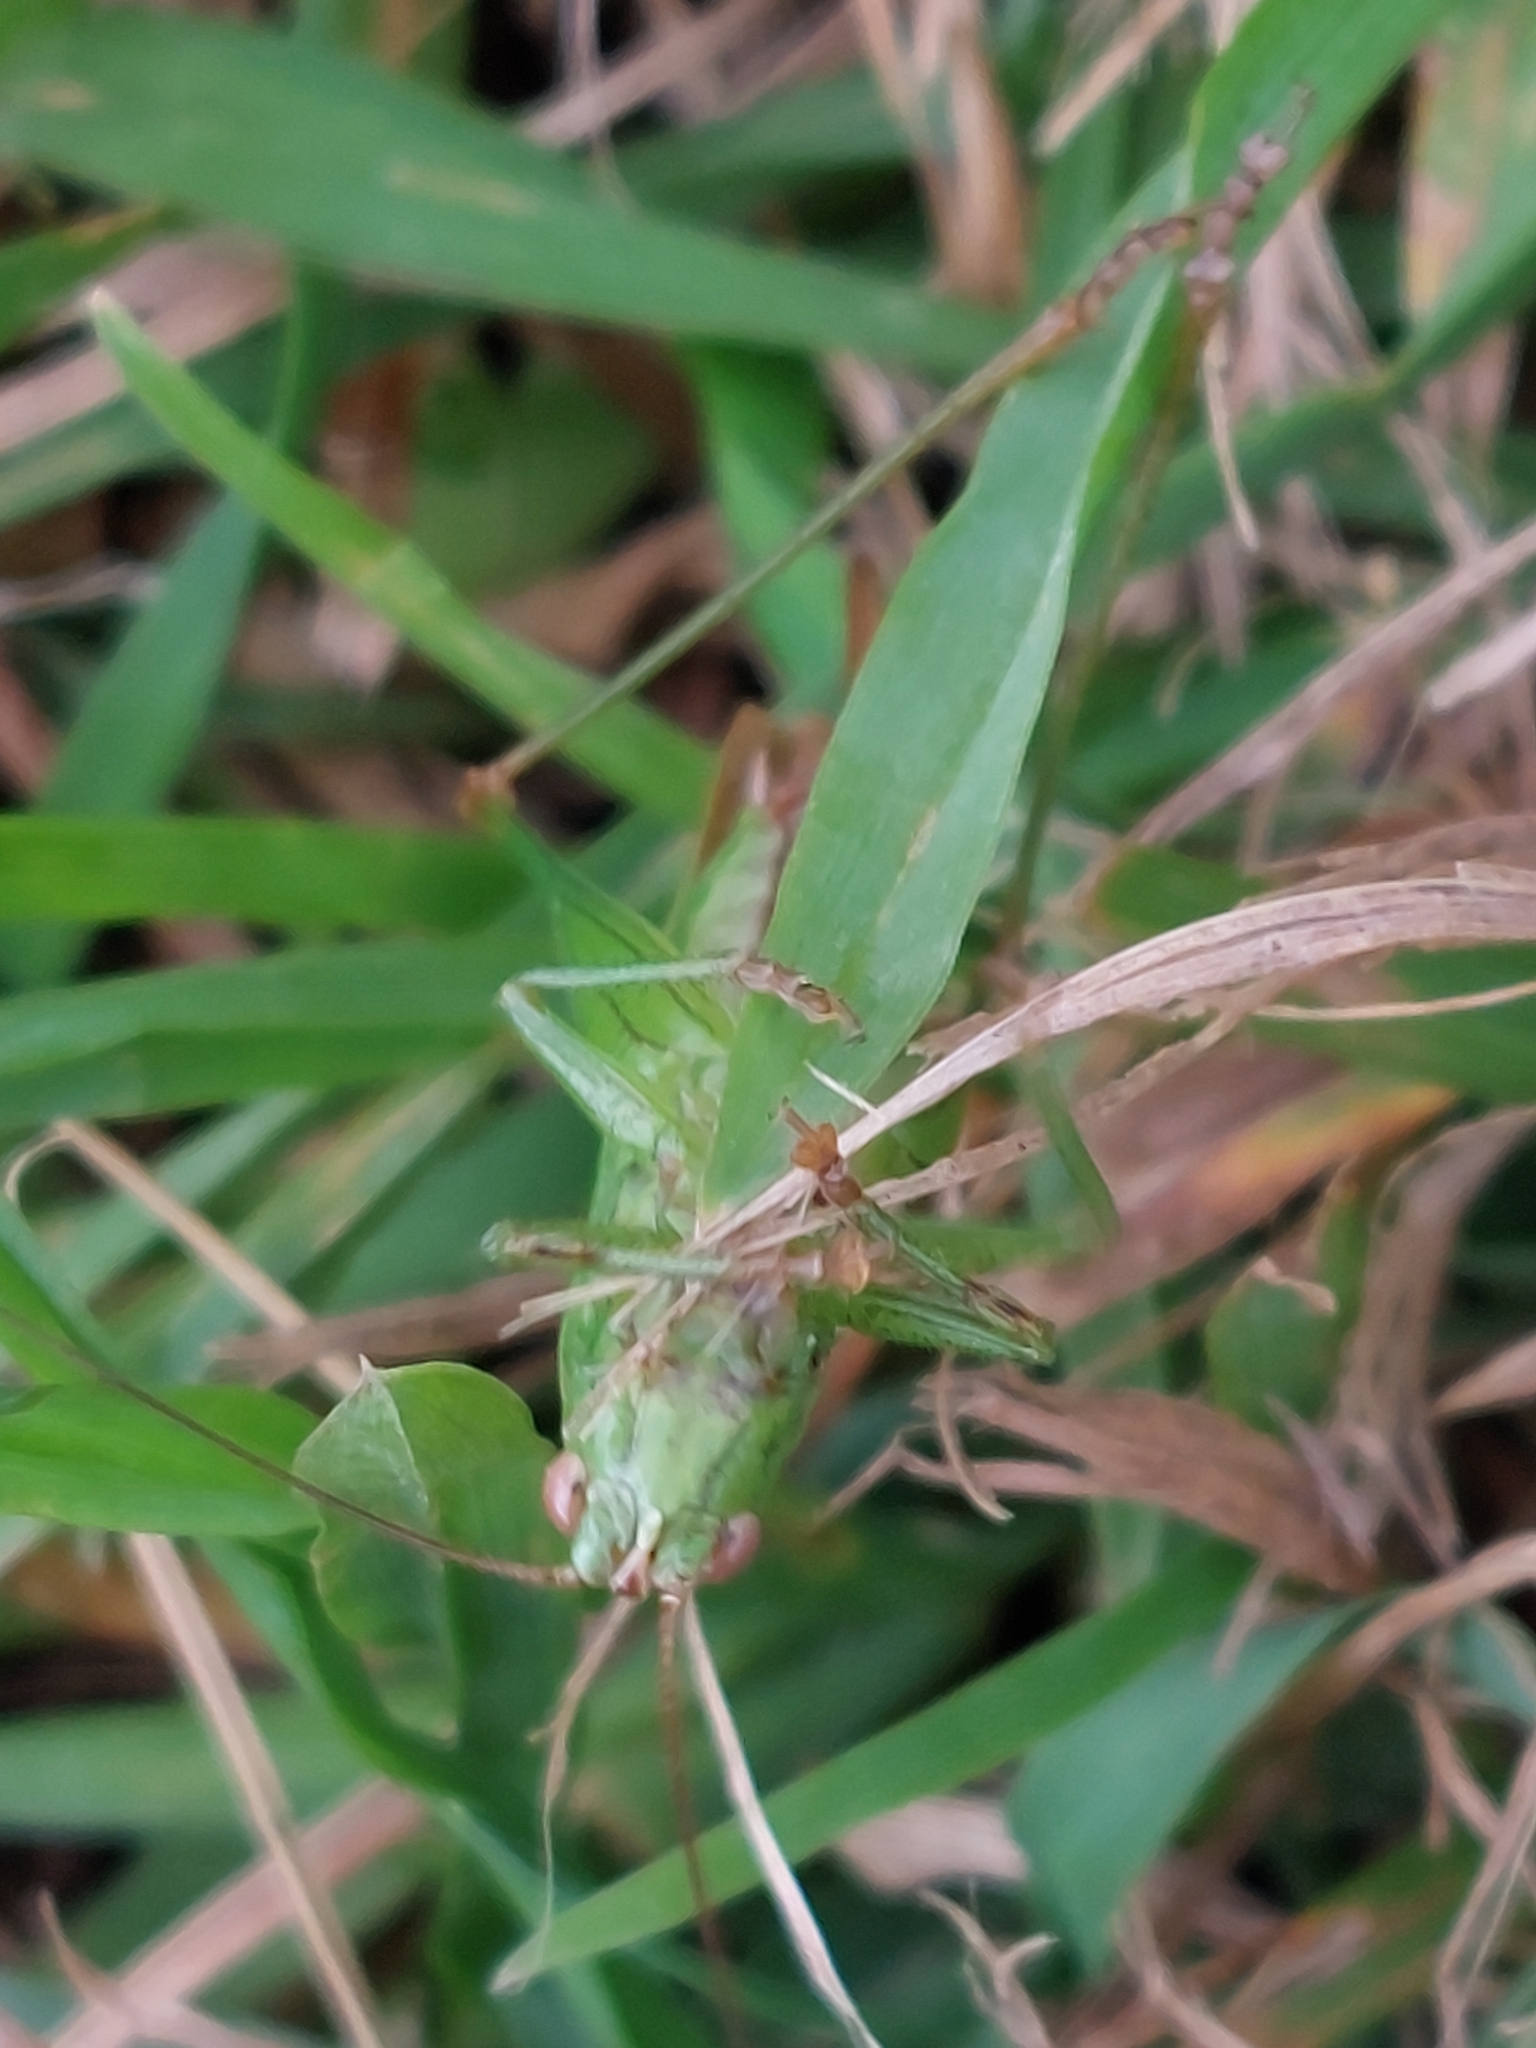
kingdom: Animalia
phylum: Arthropoda
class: Insecta
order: Orthoptera
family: Tettigoniidae
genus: Conocephalus
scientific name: Conocephalus fuscus
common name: Long-winged conehead
